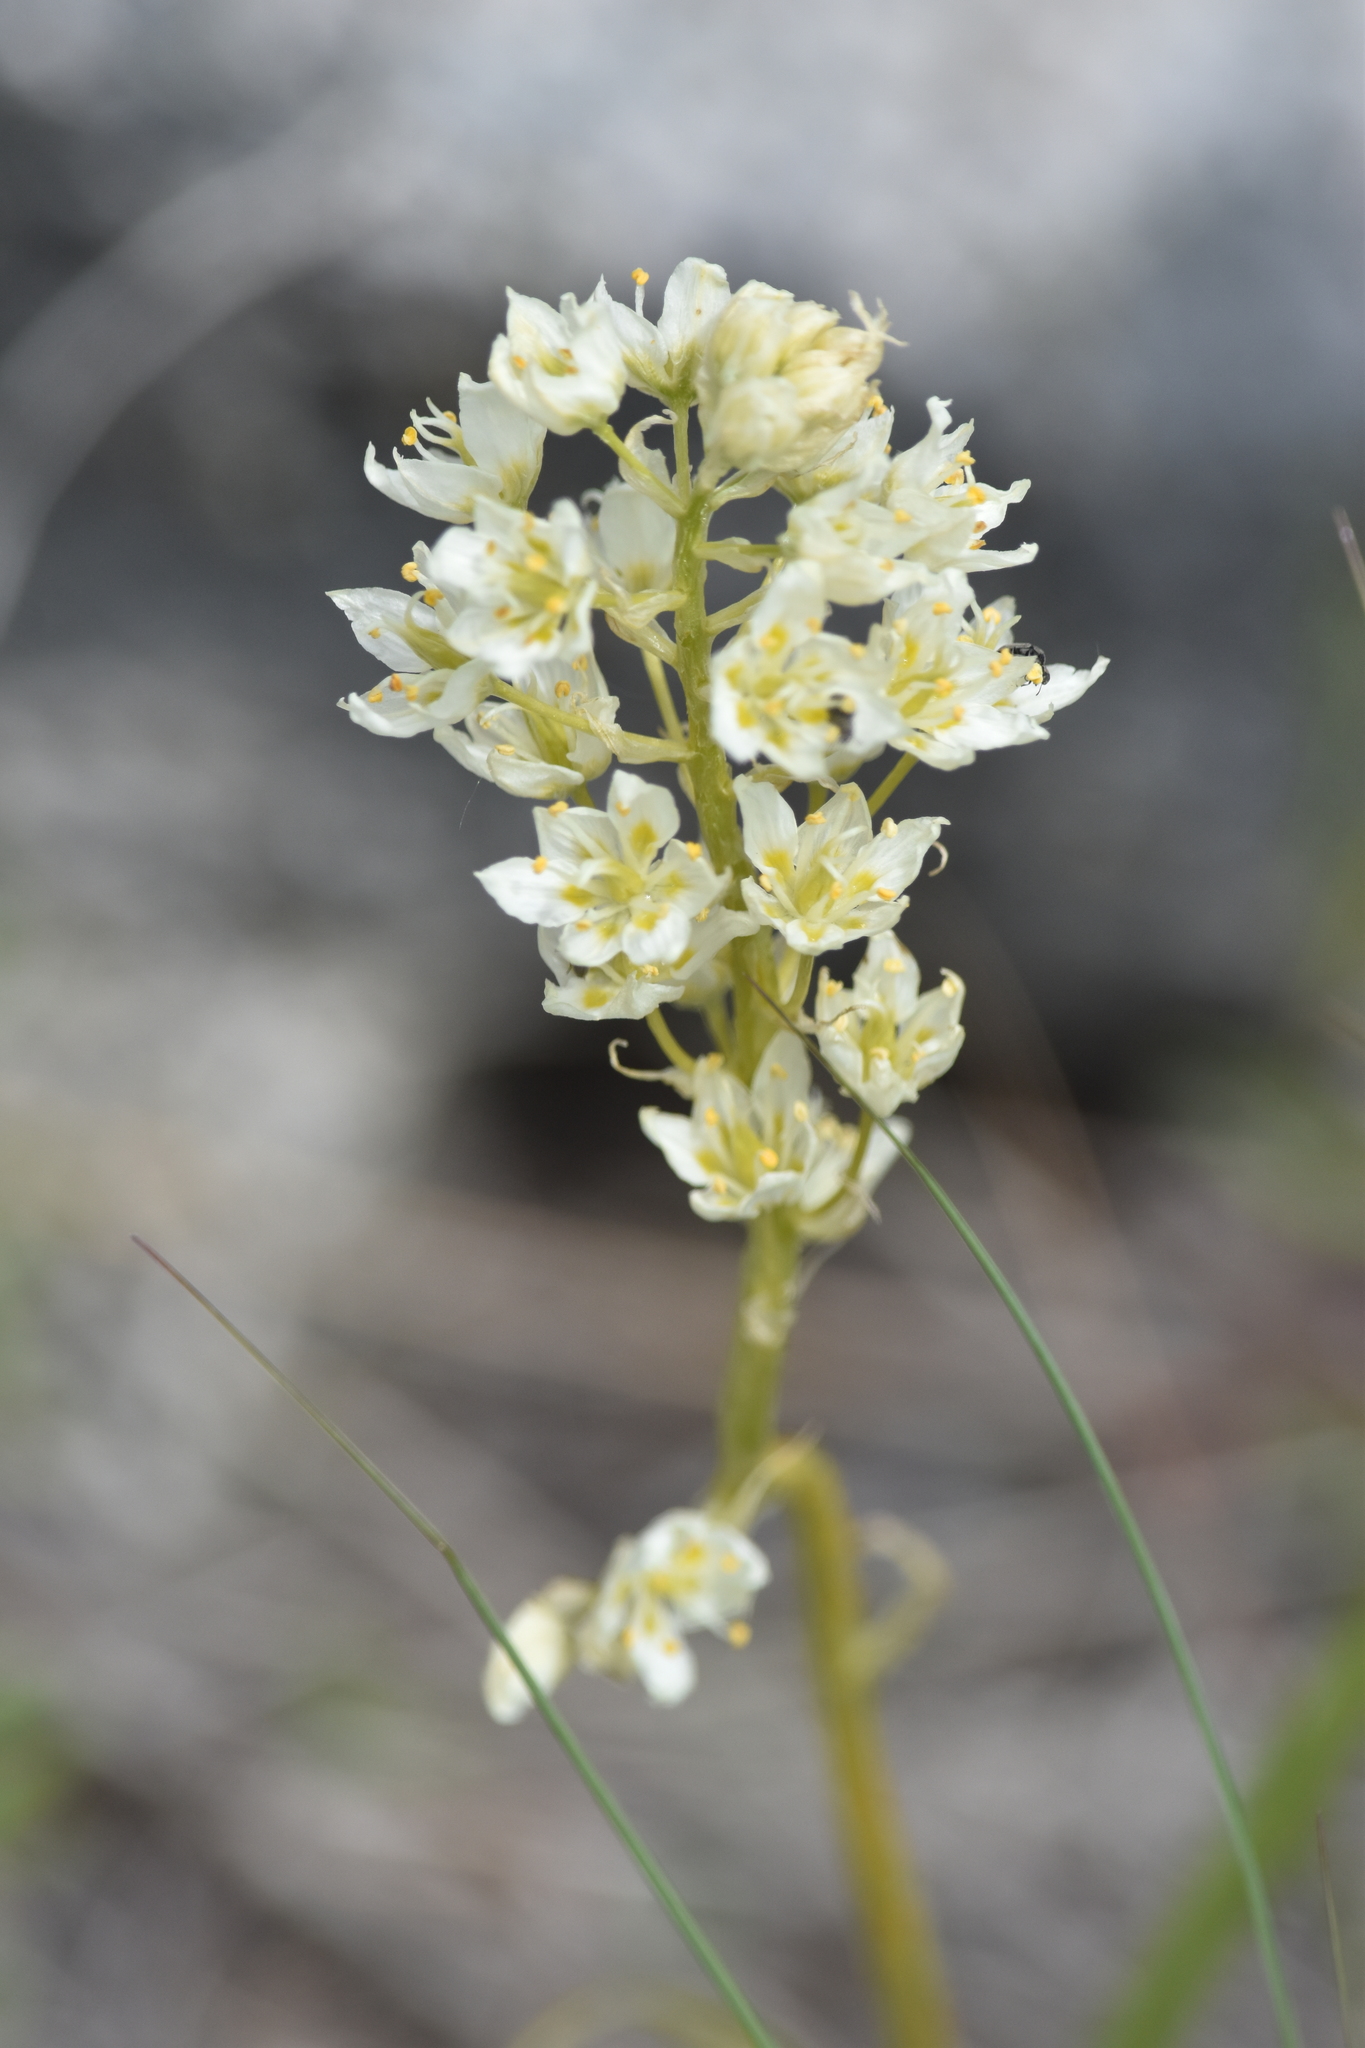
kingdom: Plantae
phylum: Tracheophyta
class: Liliopsida
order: Liliales
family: Melanthiaceae
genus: Toxicoscordion
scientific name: Toxicoscordion venenosum
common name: Meadow death camas
